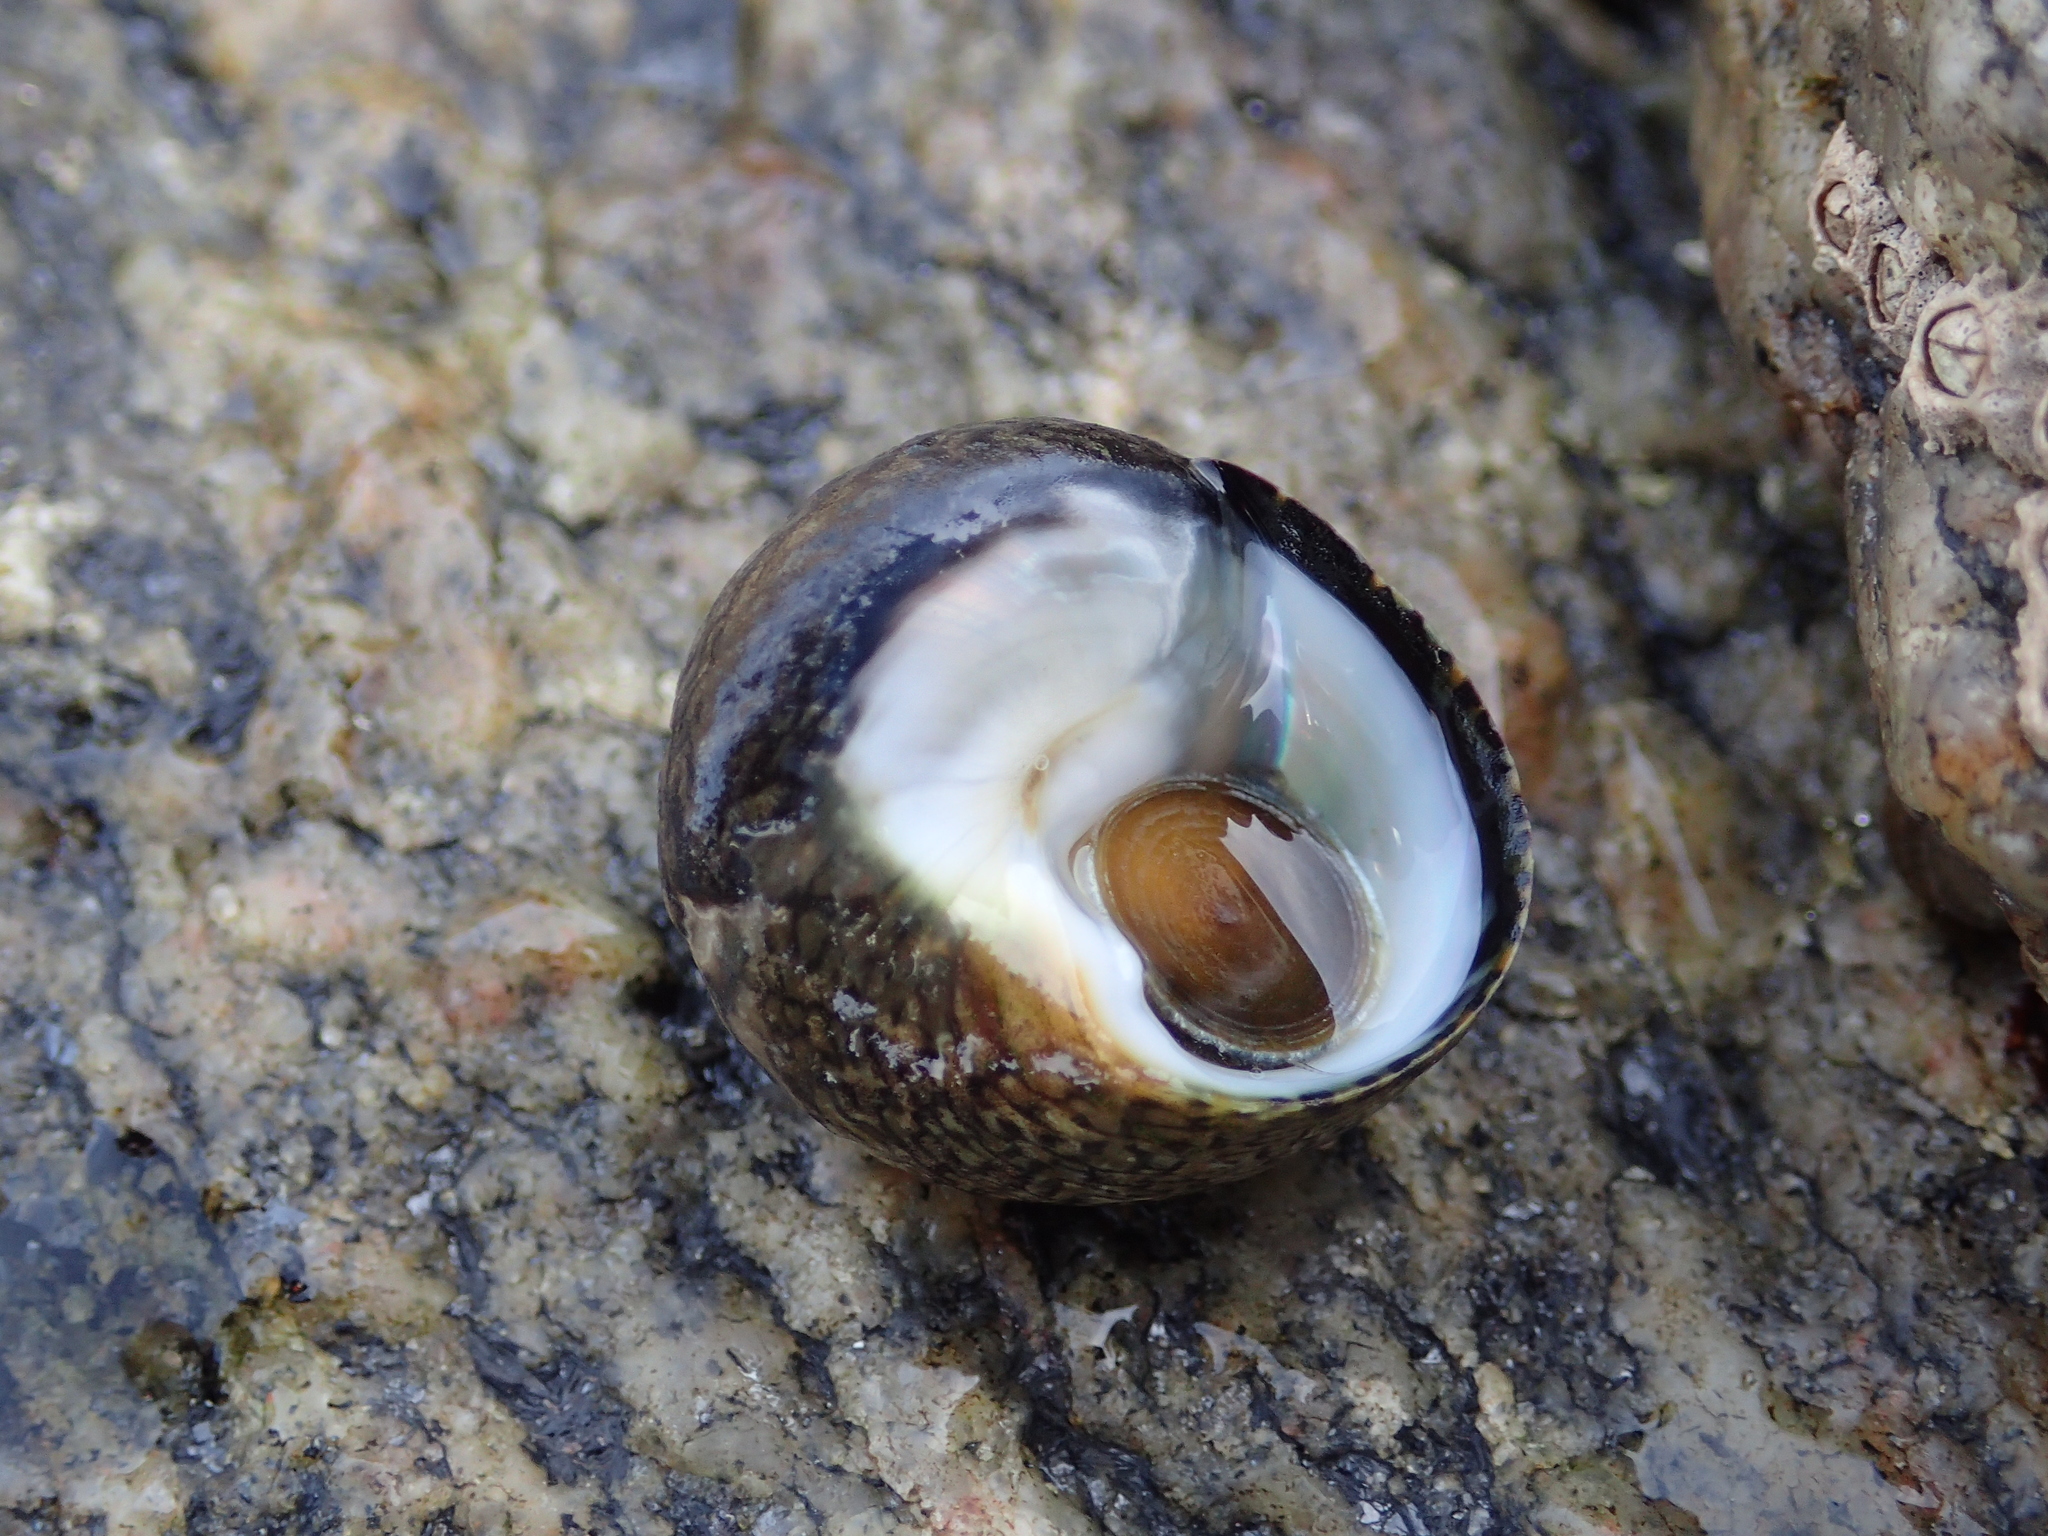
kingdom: Animalia
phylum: Mollusca
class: Gastropoda
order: Trochida
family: Trochidae
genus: Phorcus
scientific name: Phorcus lineatus
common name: Toothed top shell
